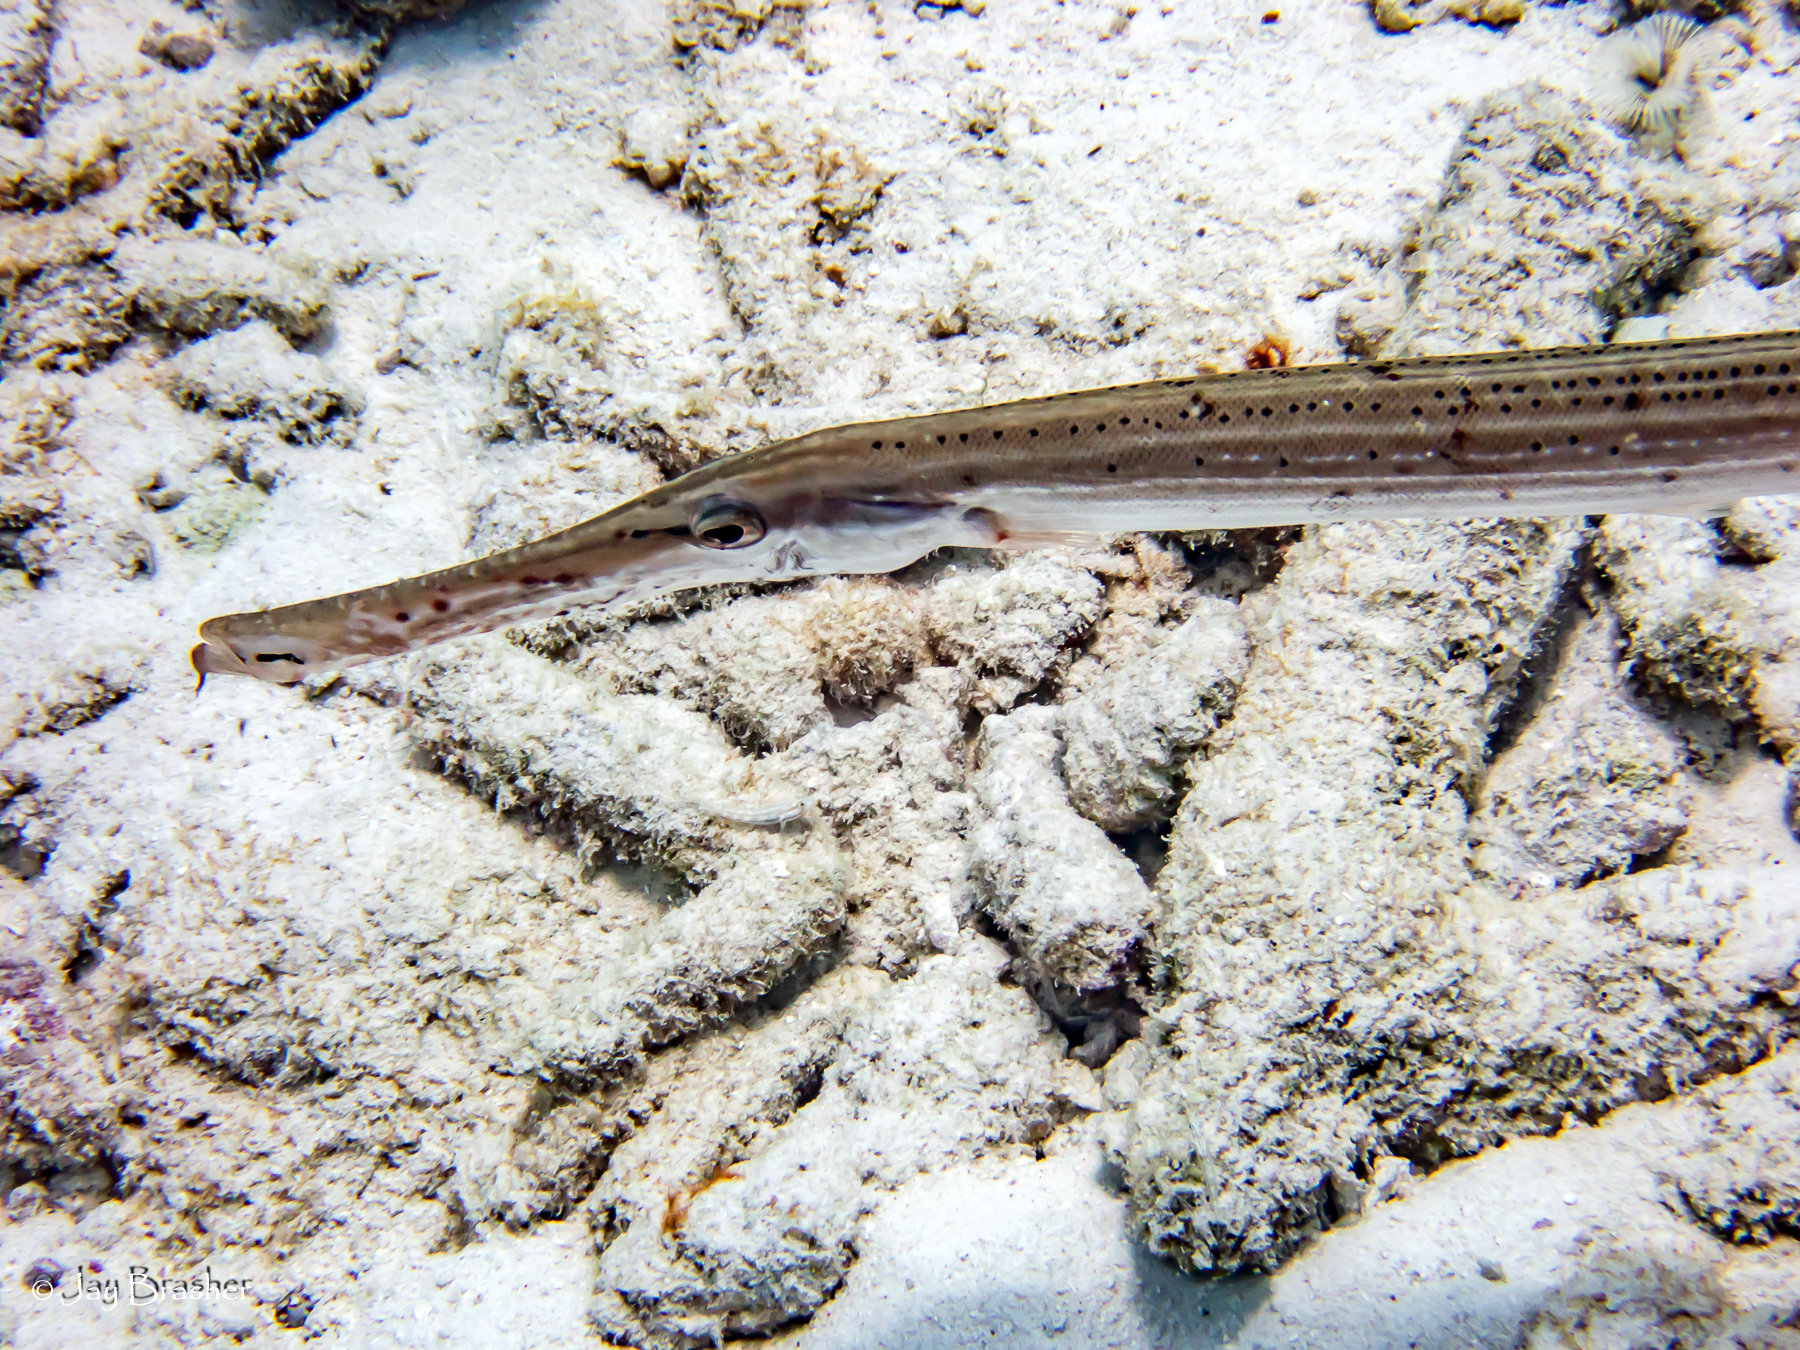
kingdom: Animalia
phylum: Chordata
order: Syngnathiformes
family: Aulostomidae
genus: Aulostomus
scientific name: Aulostomus maculatus
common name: West atlantic trumpetfish
